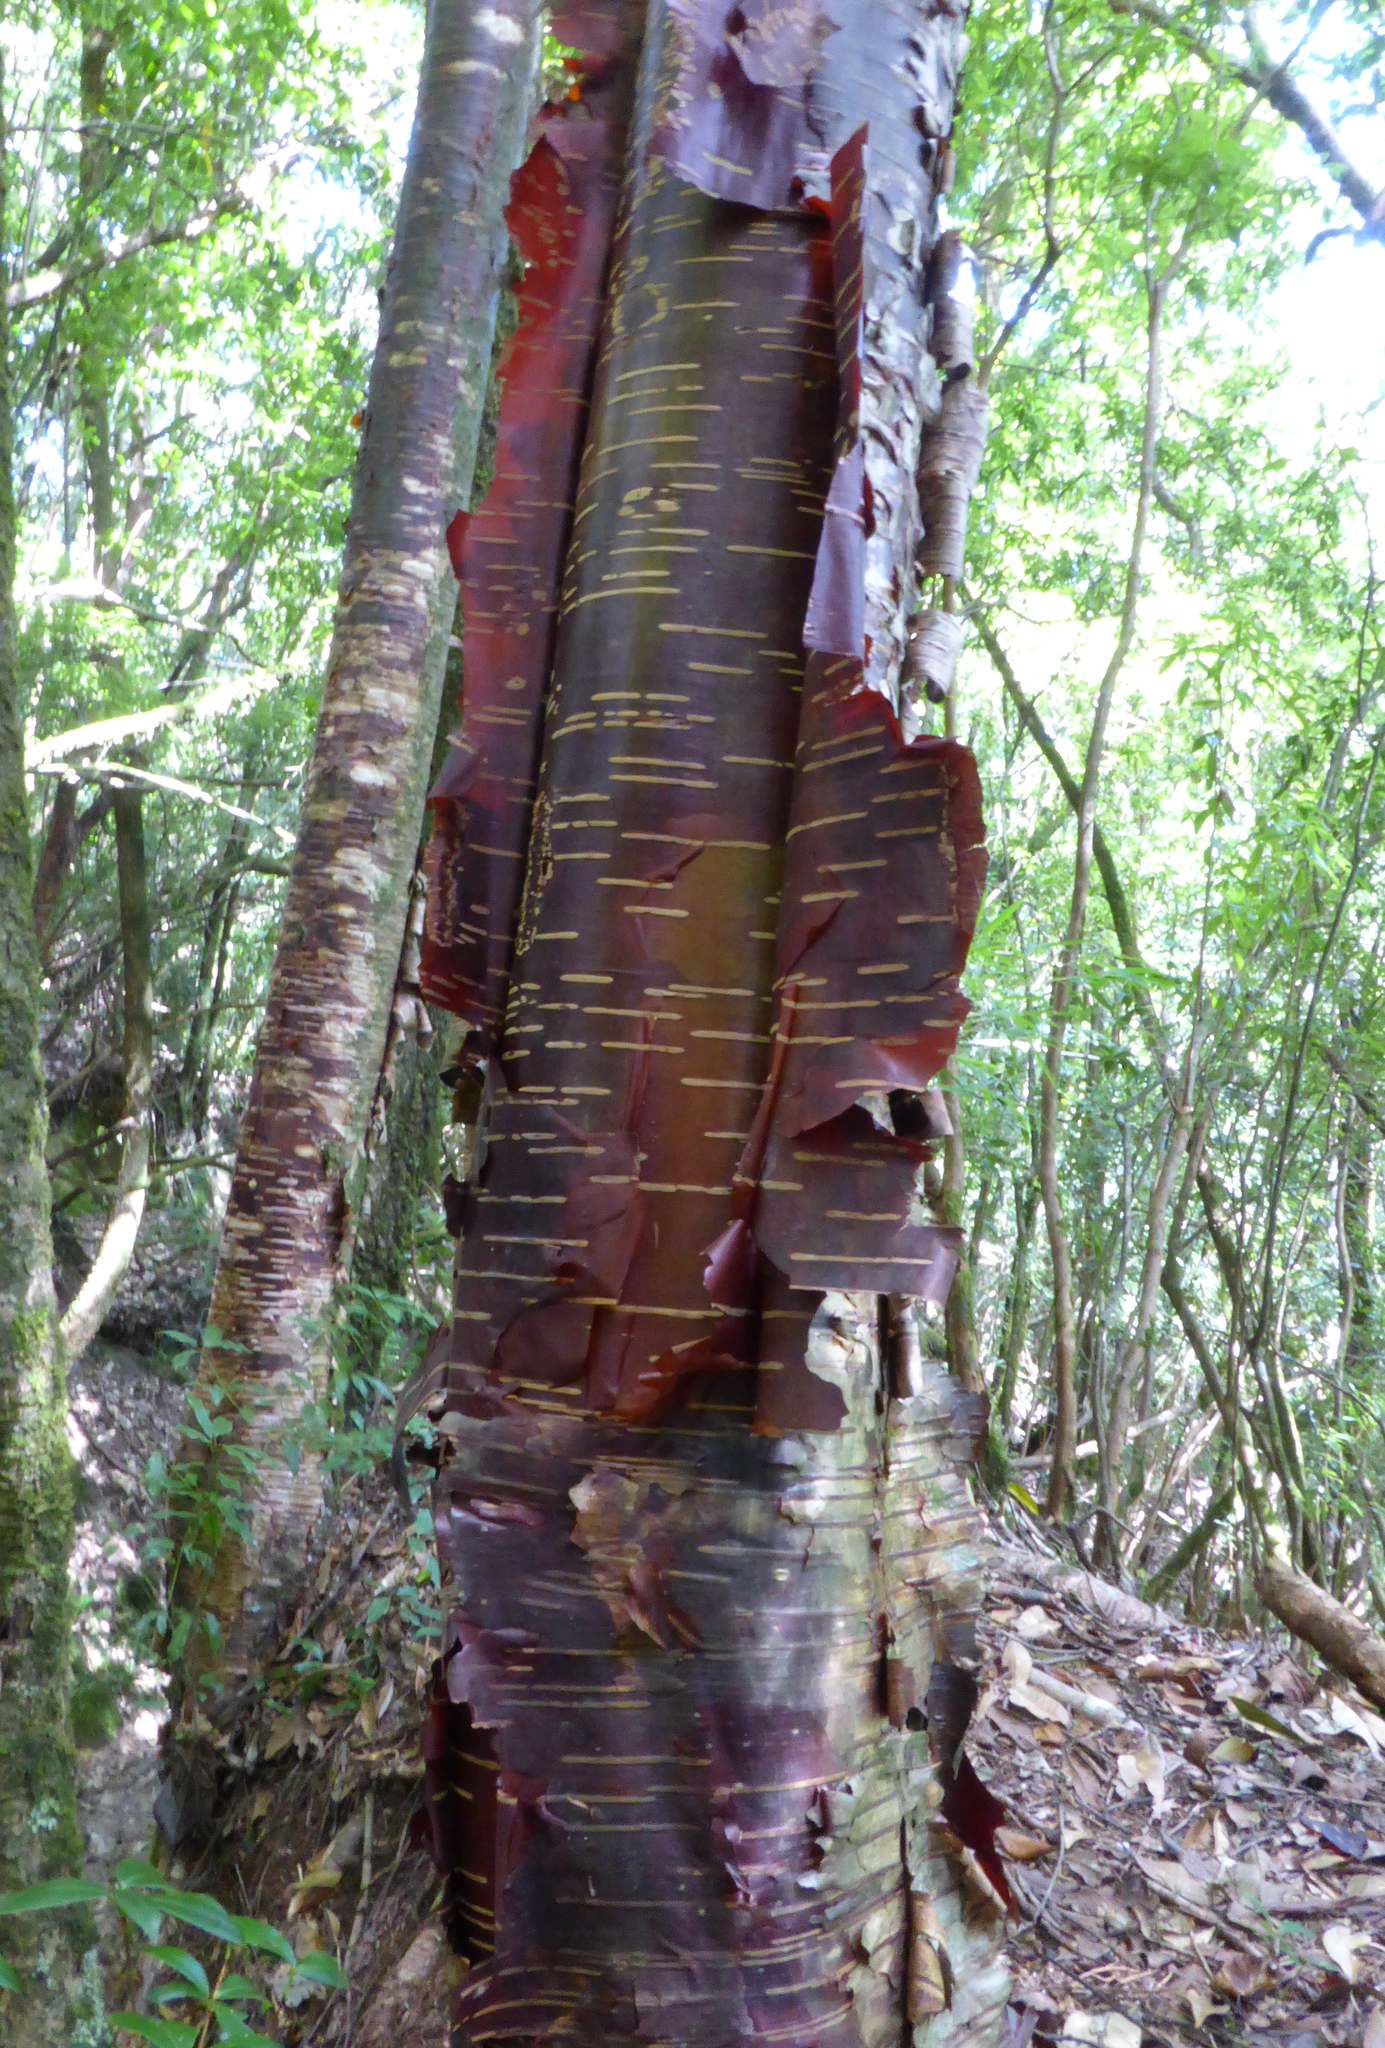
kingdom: Plantae
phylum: Tracheophyta
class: Magnoliopsida
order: Fagales
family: Betulaceae
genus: Betula
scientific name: Betula utilis
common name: Himalayan birch
